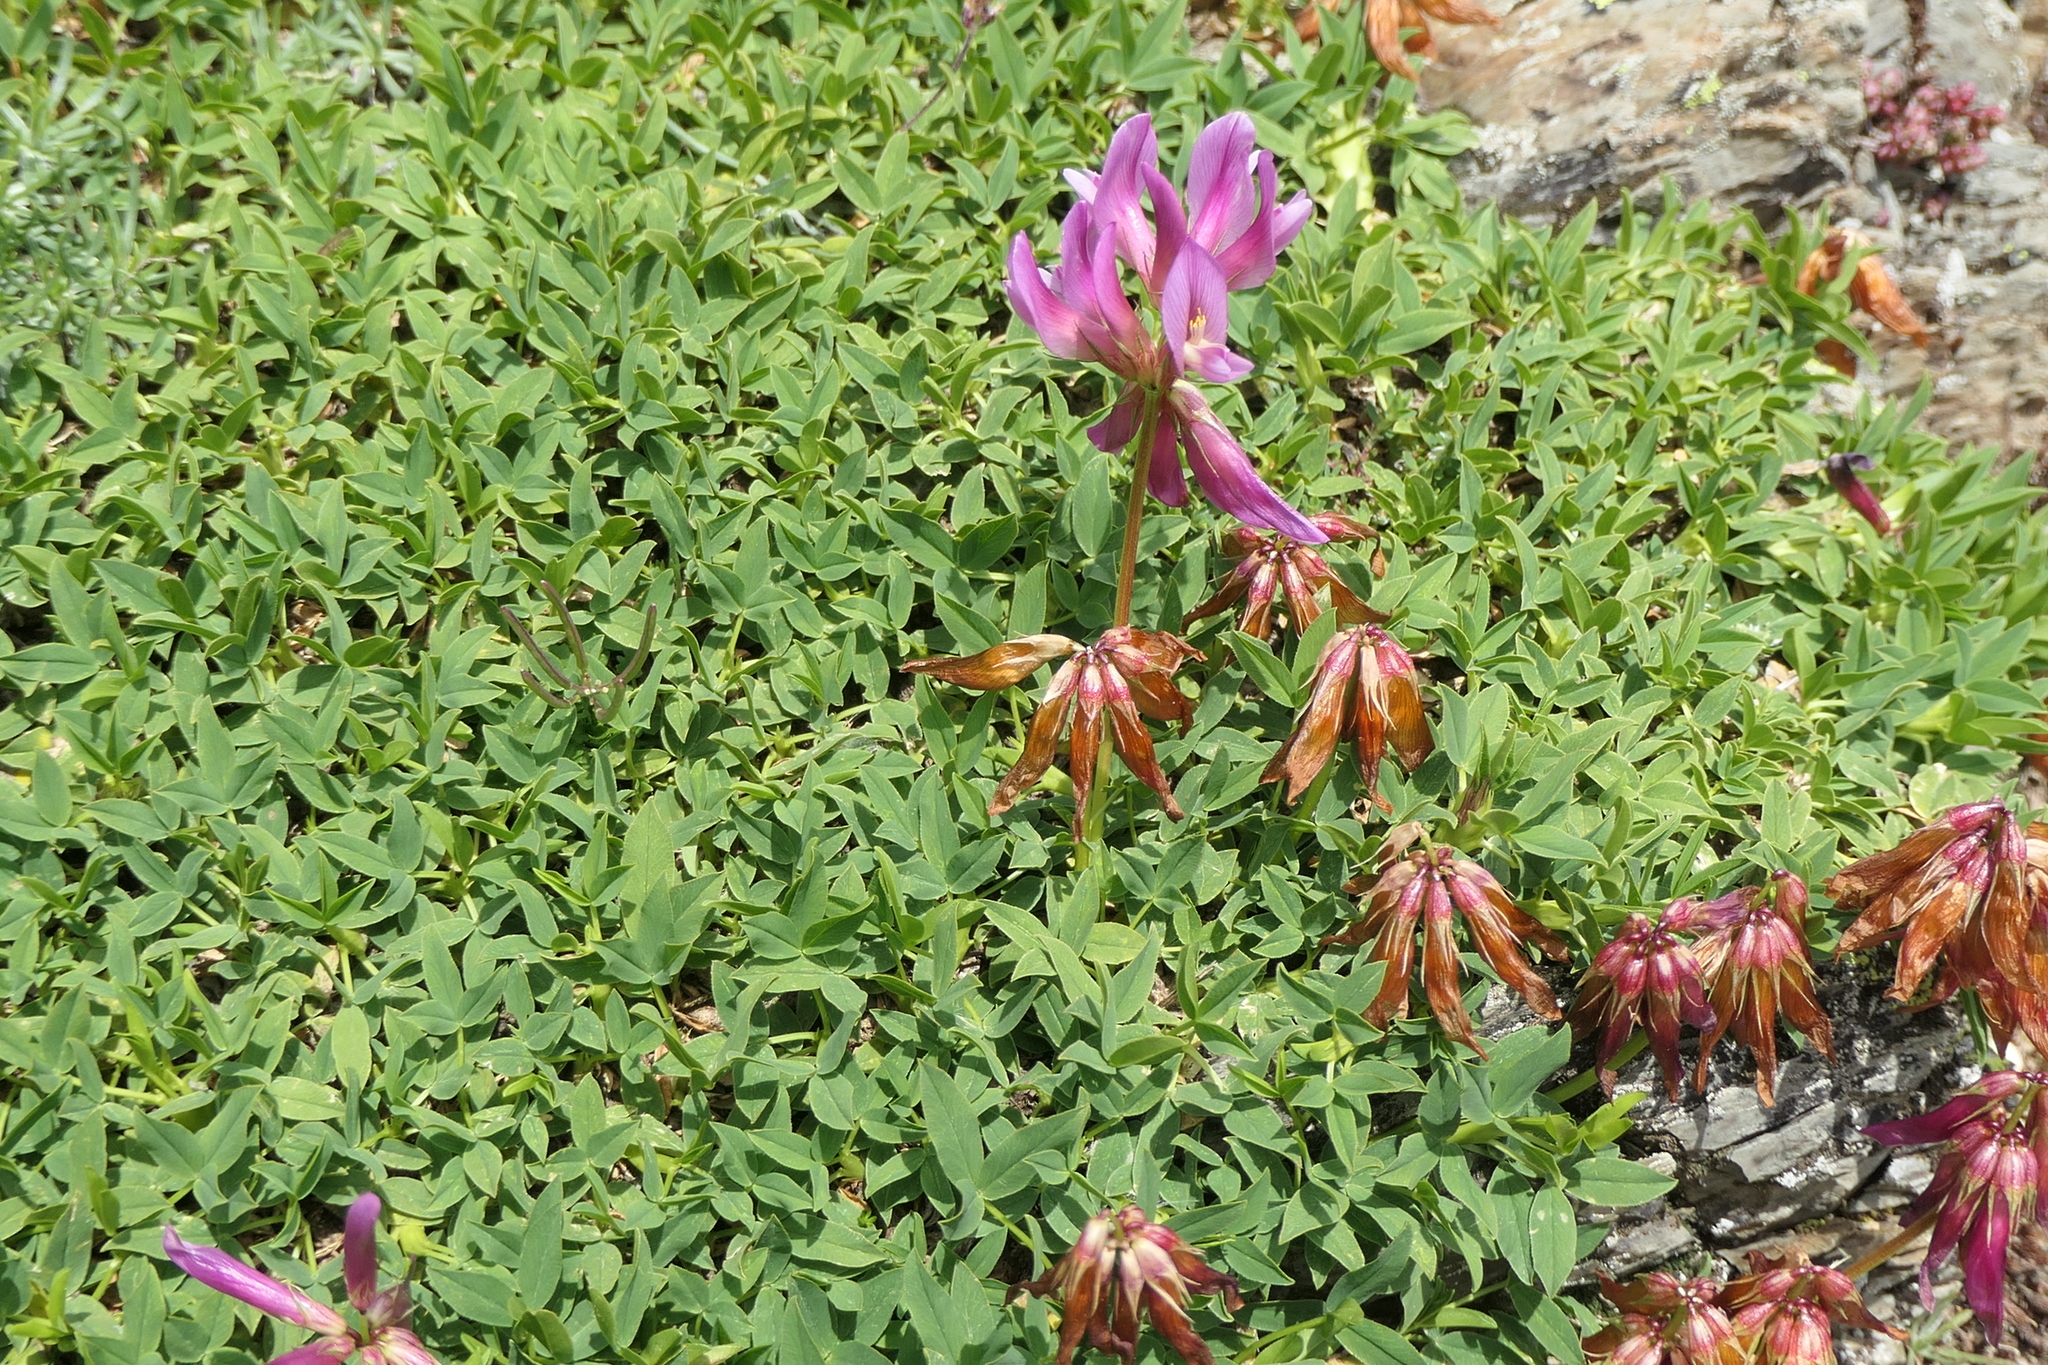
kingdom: Plantae
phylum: Tracheophyta
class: Magnoliopsida
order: Fabales
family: Fabaceae
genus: Trifolium
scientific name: Trifolium alpinum
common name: Alpine clover
